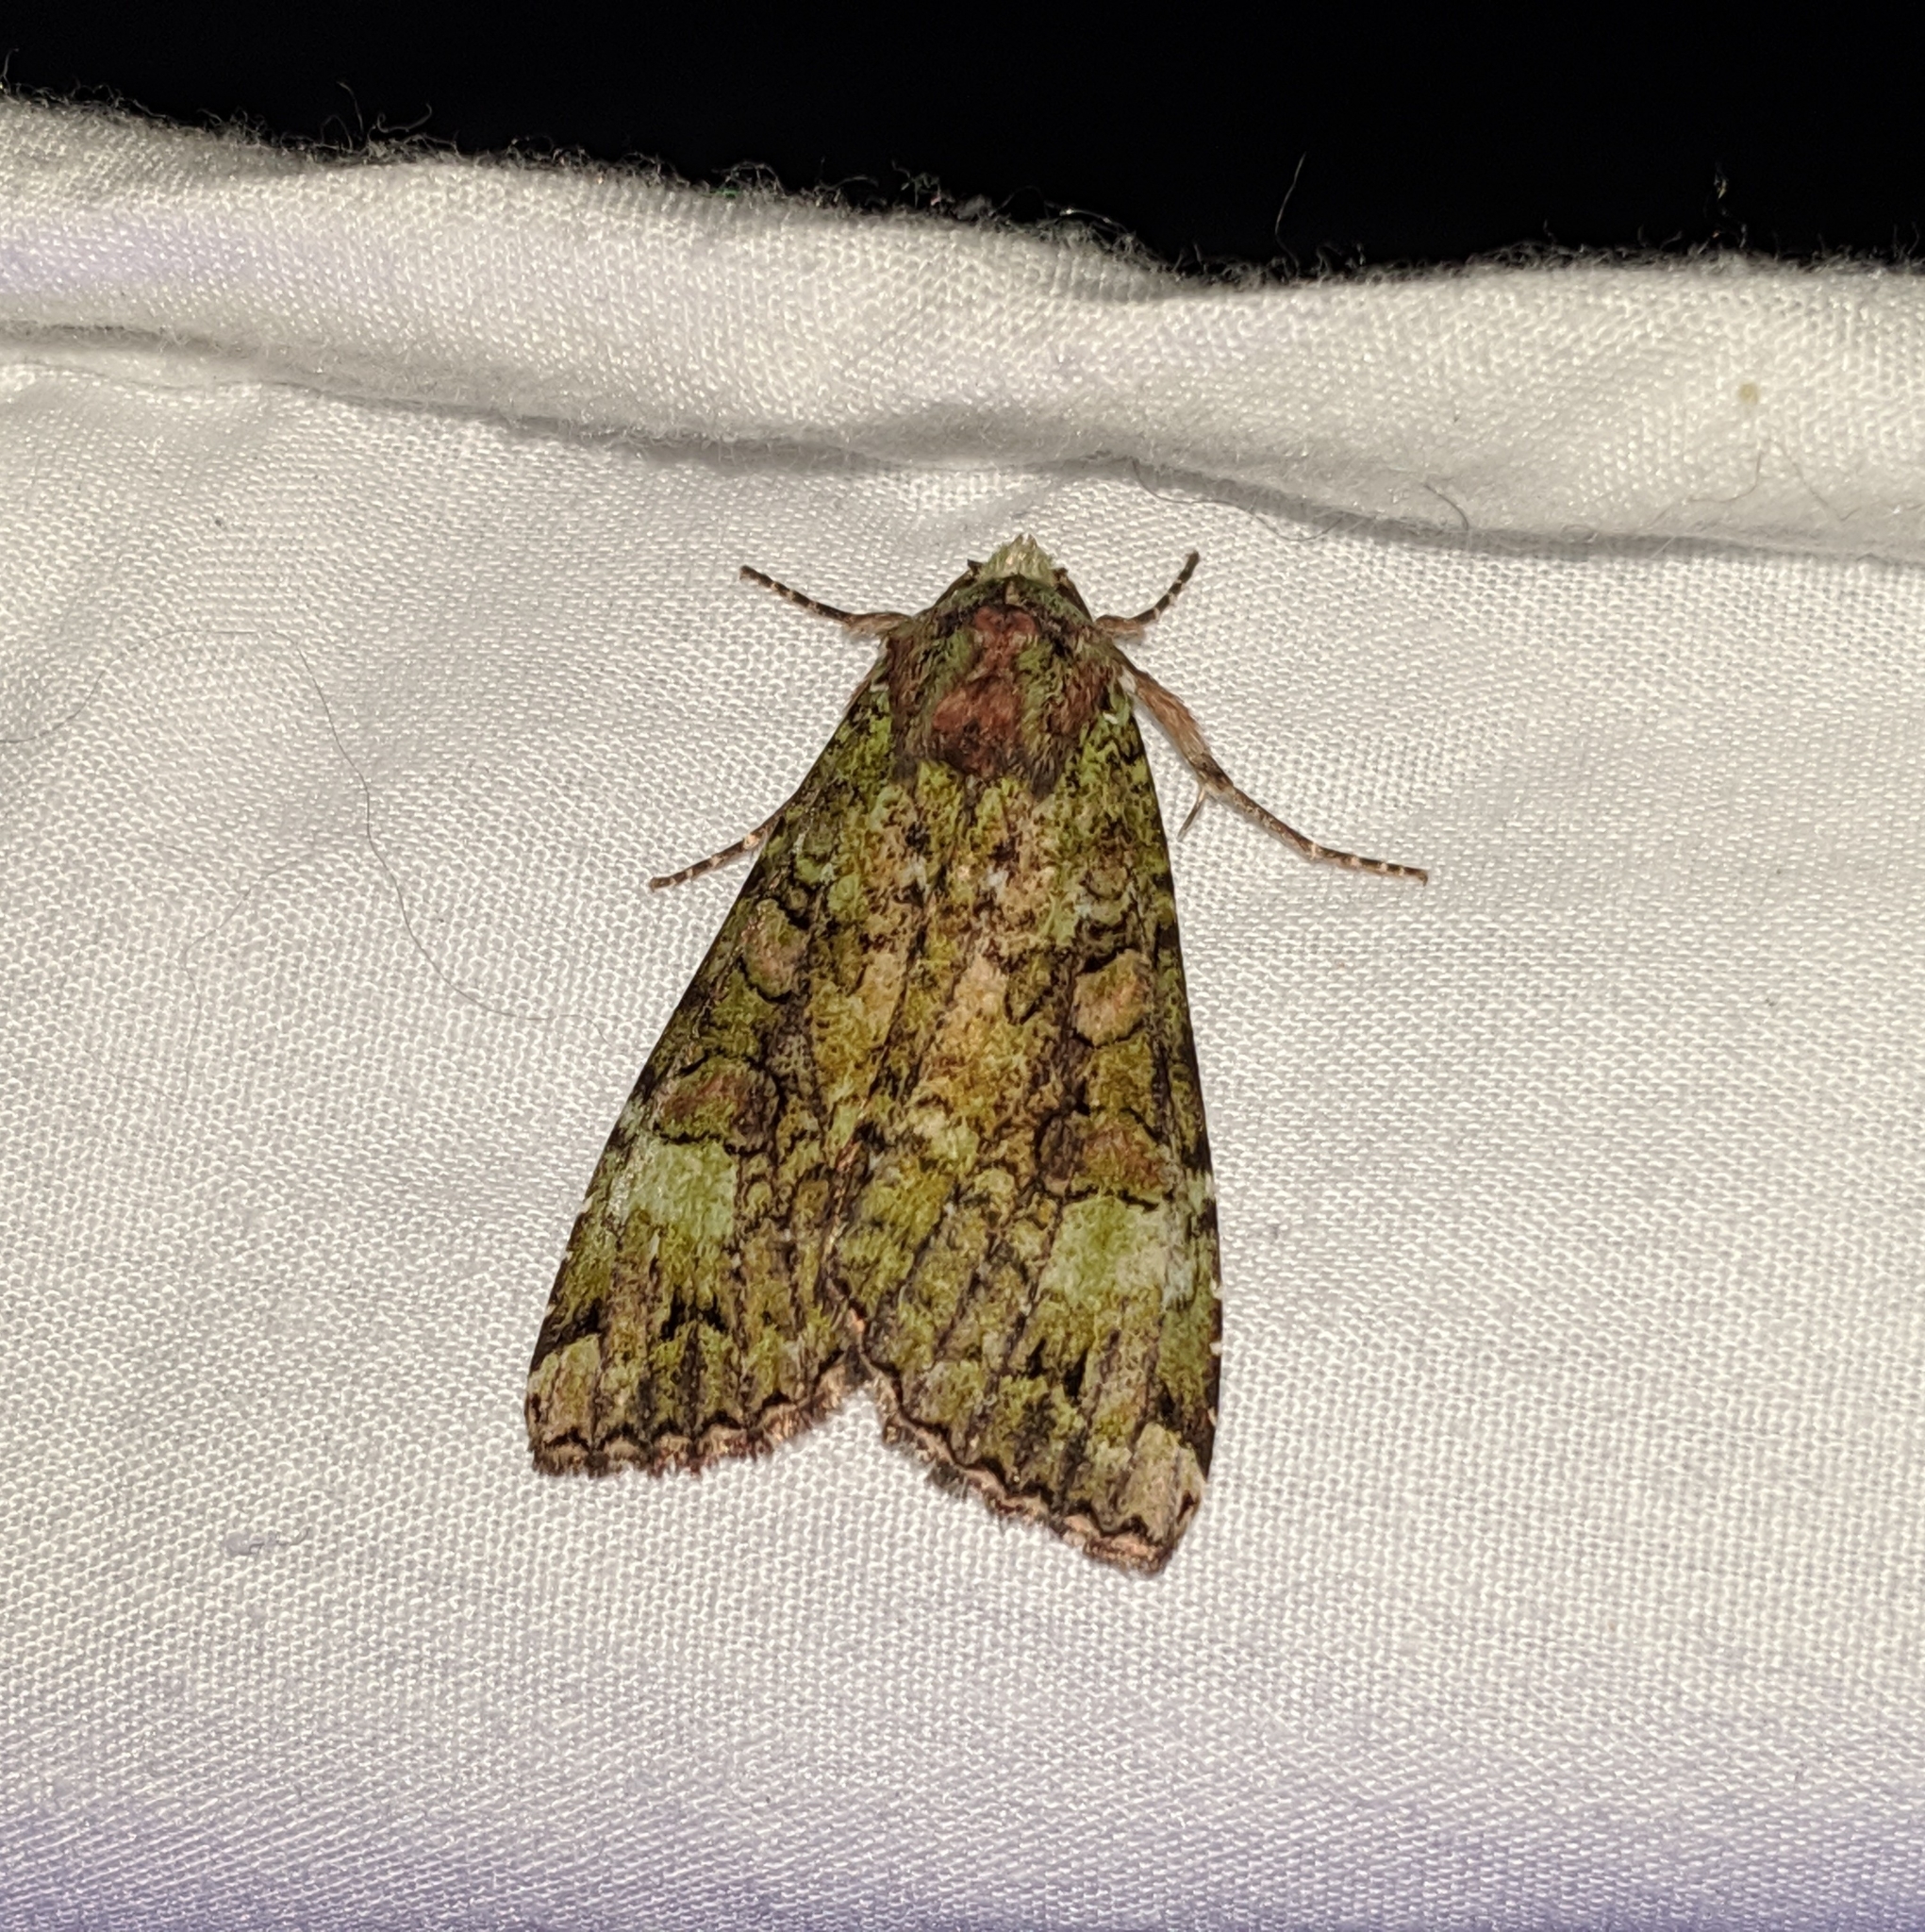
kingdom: Animalia
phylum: Arthropoda
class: Insecta
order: Lepidoptera
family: Noctuidae
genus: Anaplectoides
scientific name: Anaplectoides prasina
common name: Green arches
